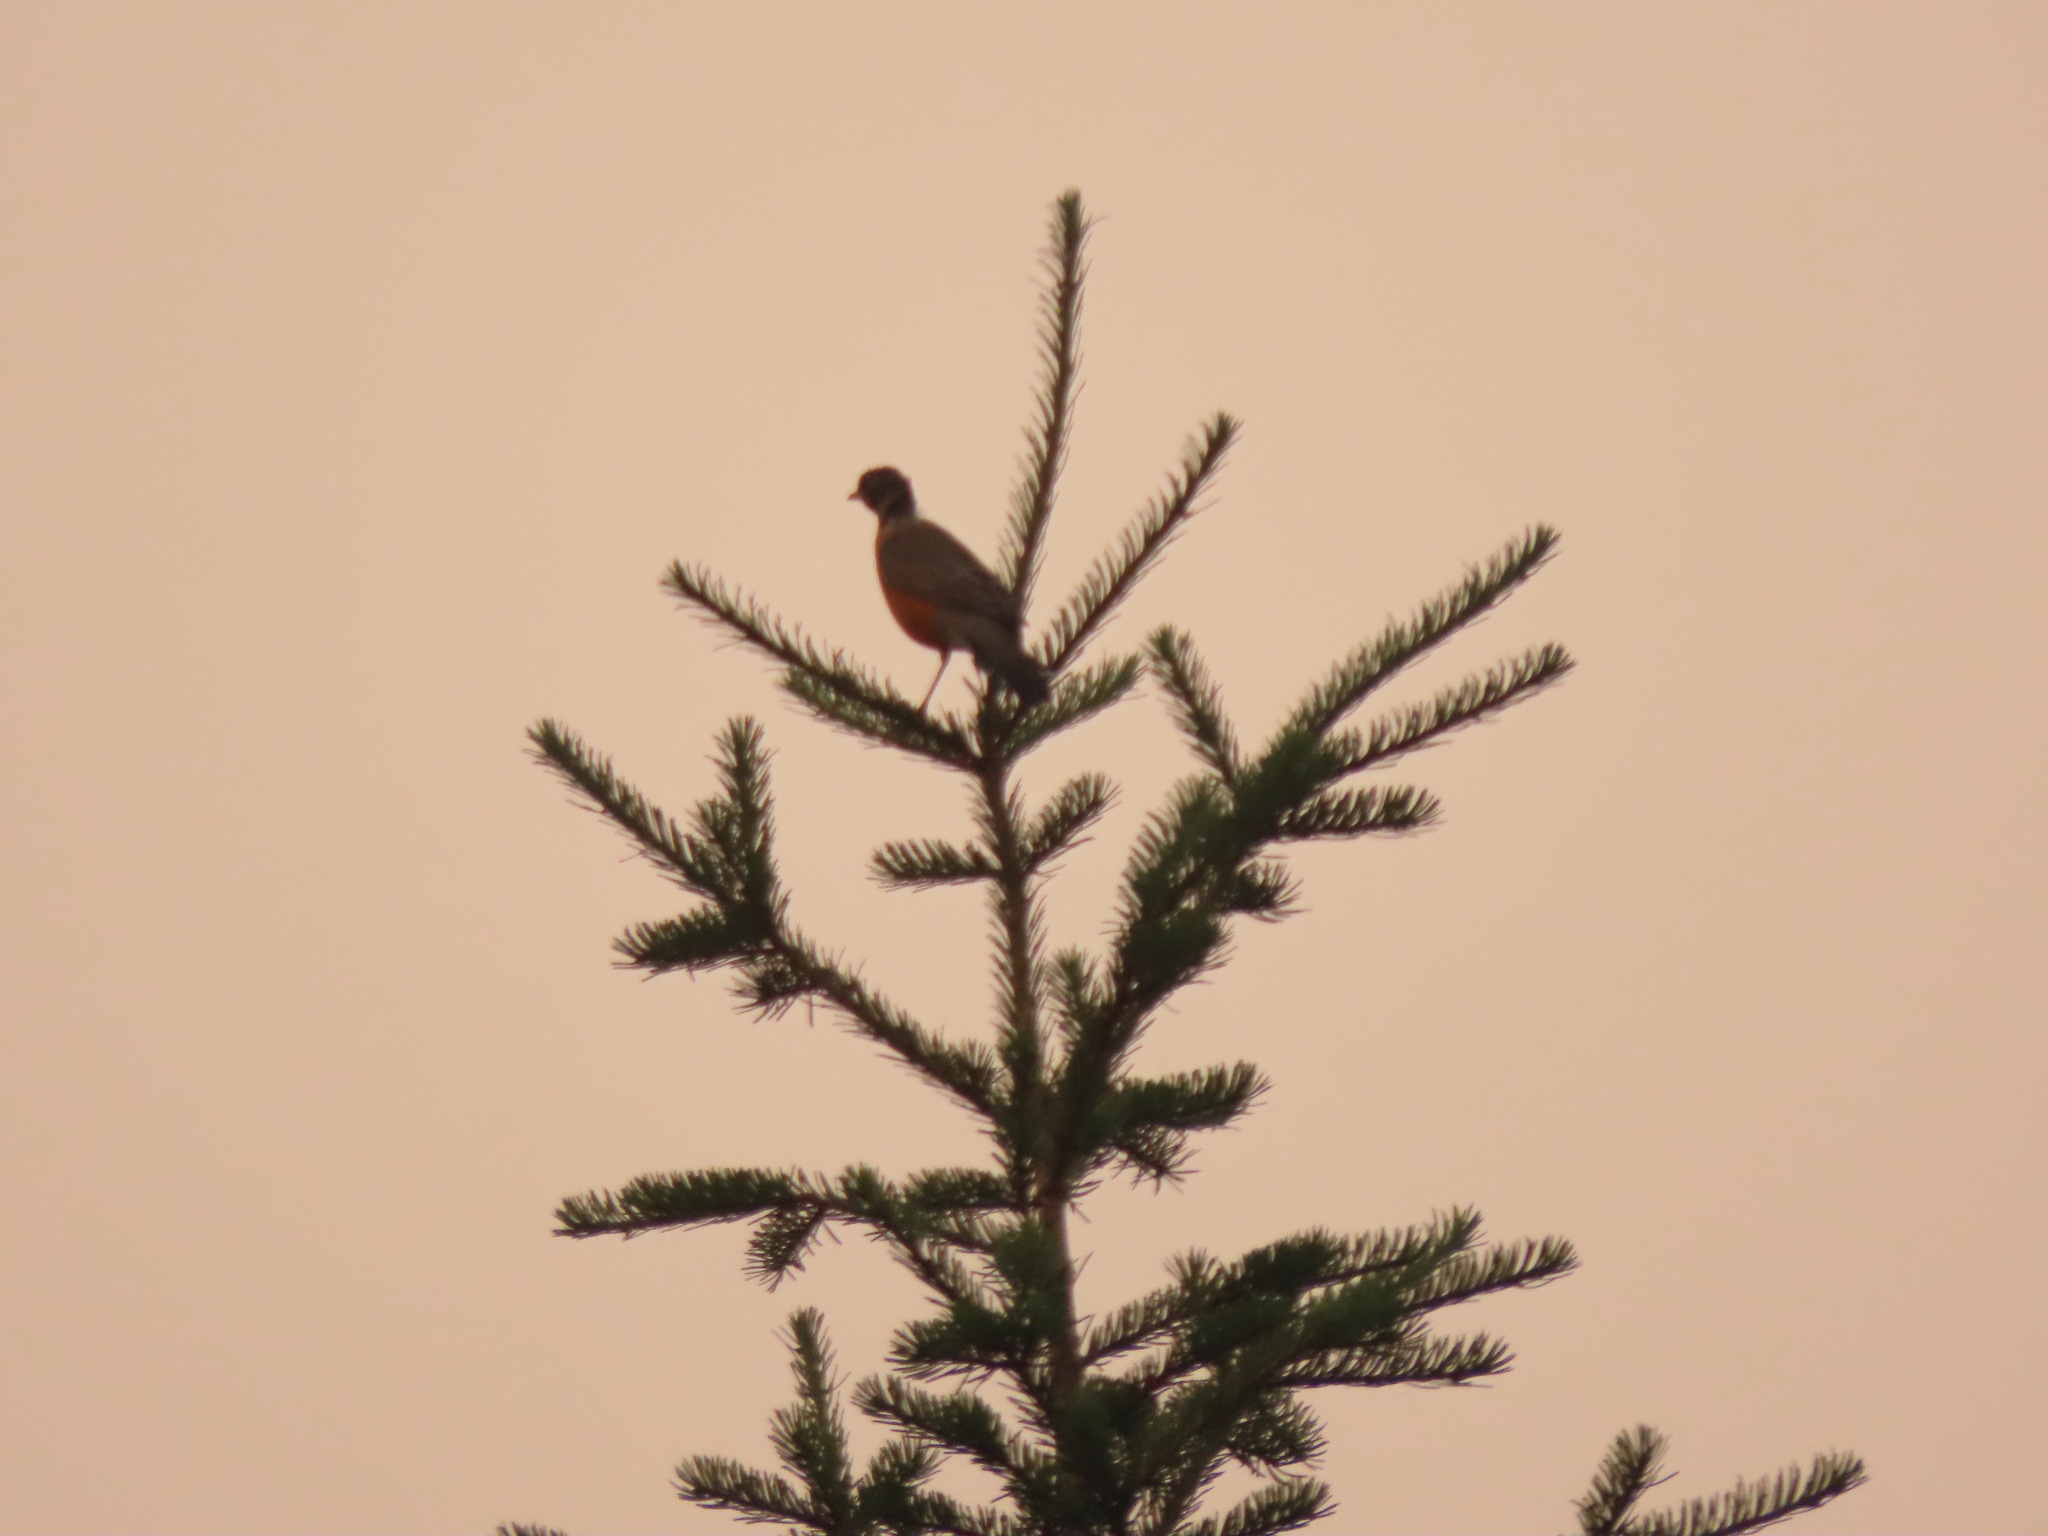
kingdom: Animalia
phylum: Chordata
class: Aves
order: Passeriformes
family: Turdidae
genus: Turdus
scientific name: Turdus migratorius
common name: American robin
